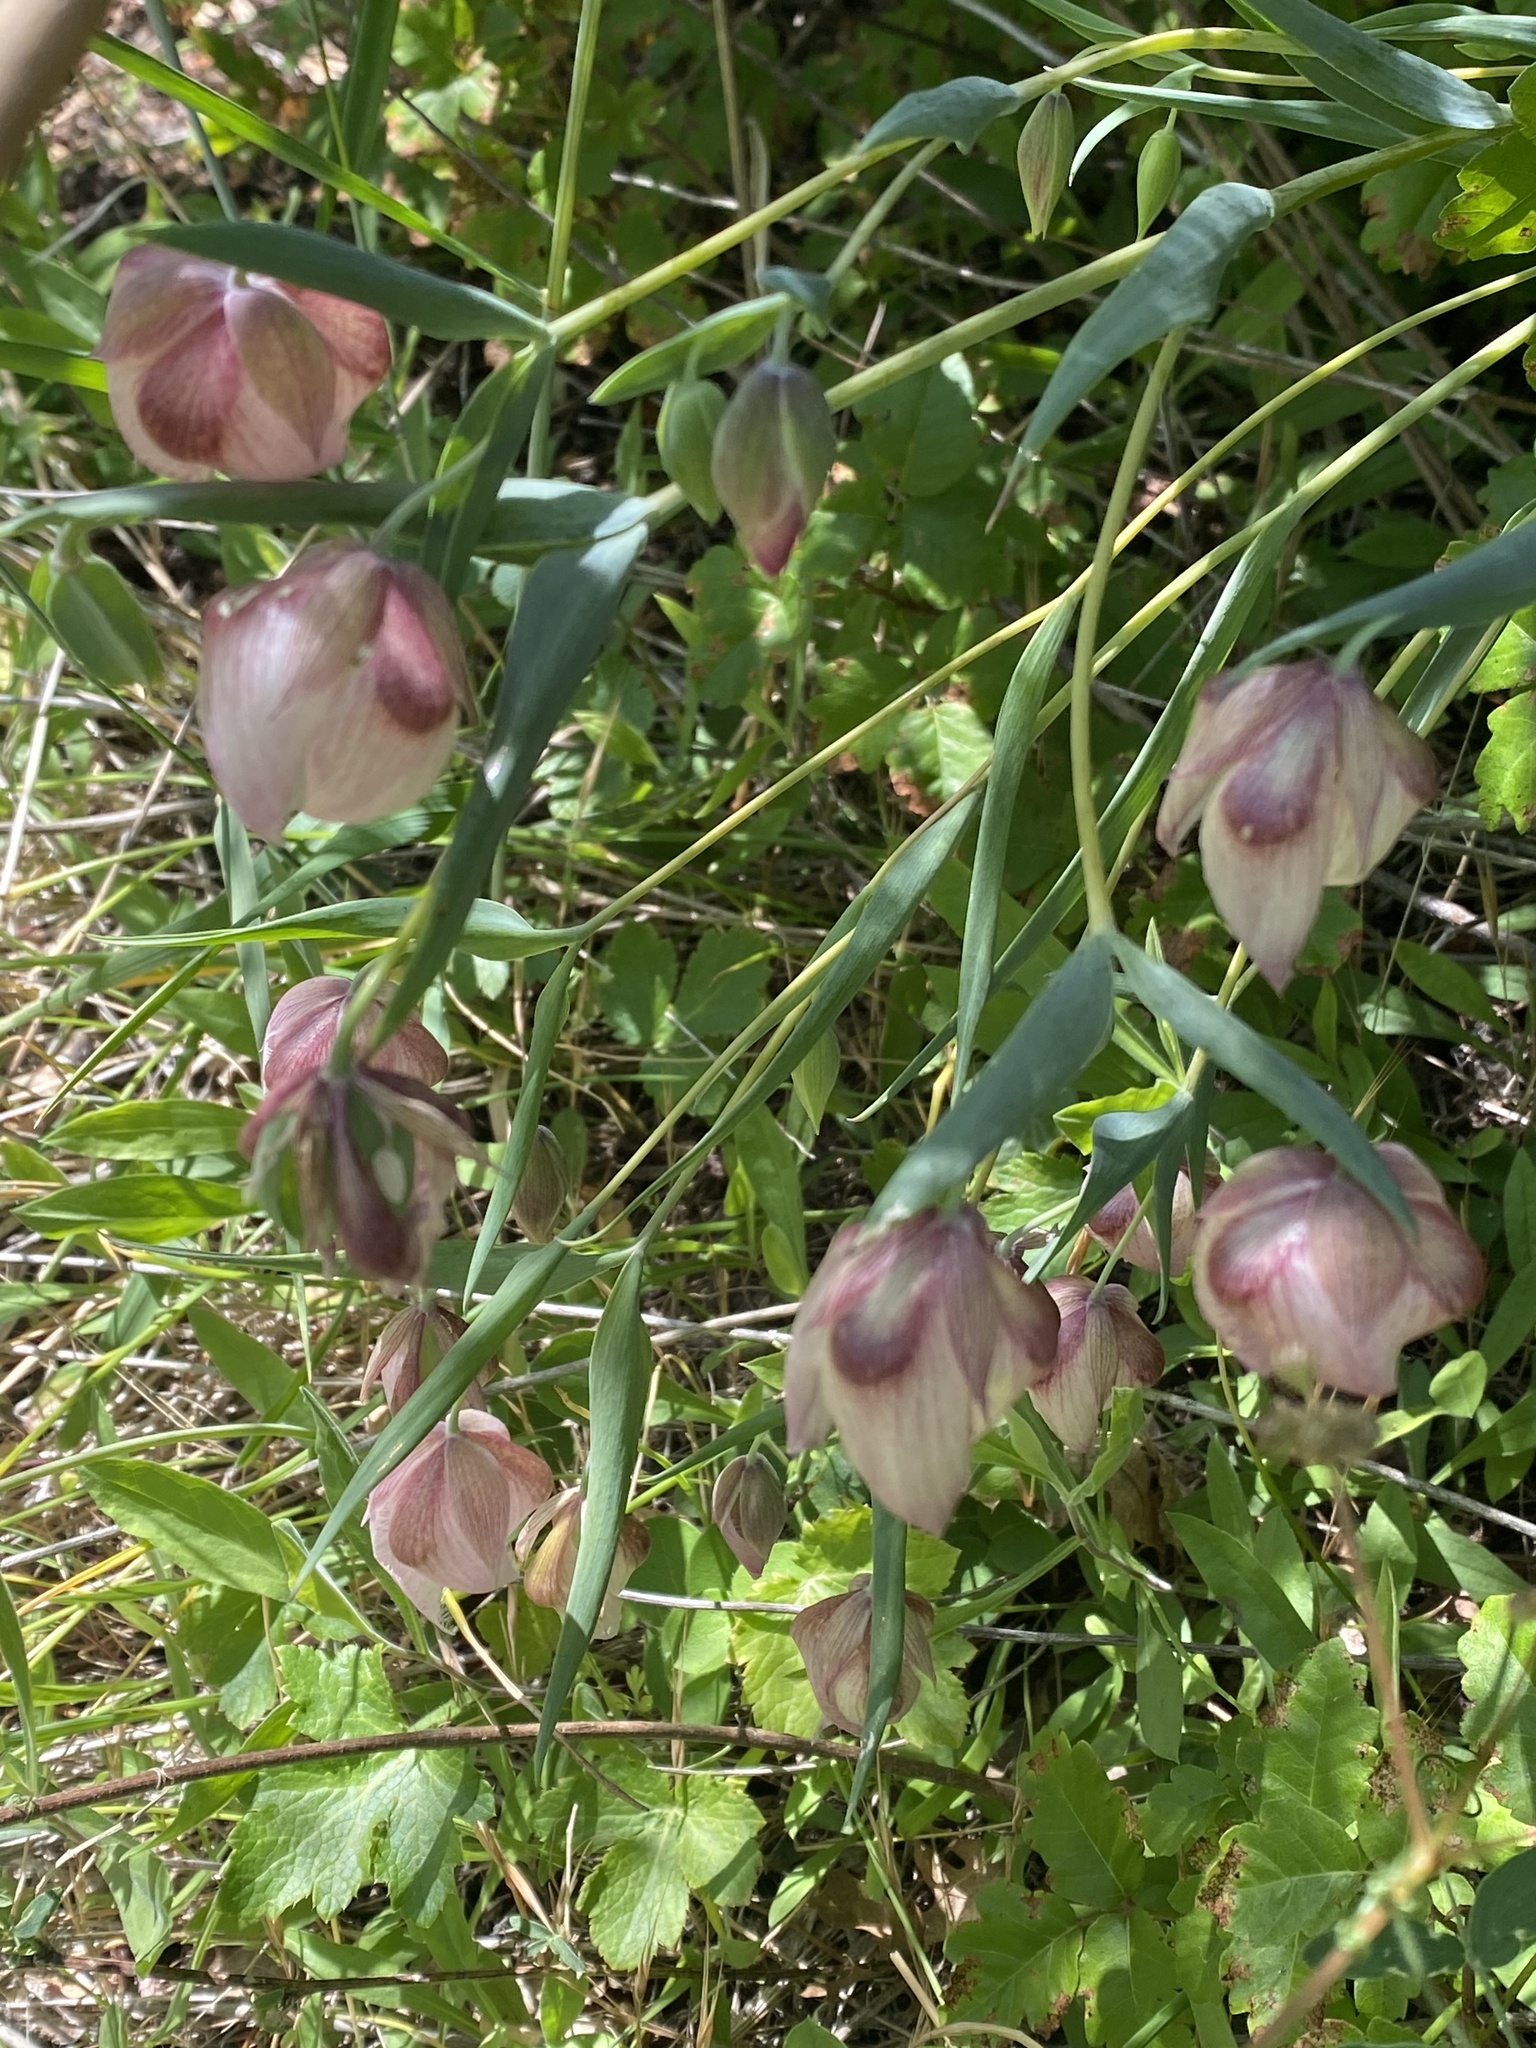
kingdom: Plantae
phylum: Tracheophyta
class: Liliopsida
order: Liliales
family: Liliaceae
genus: Calochortus
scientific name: Calochortus albus
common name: Fairy-lantern
